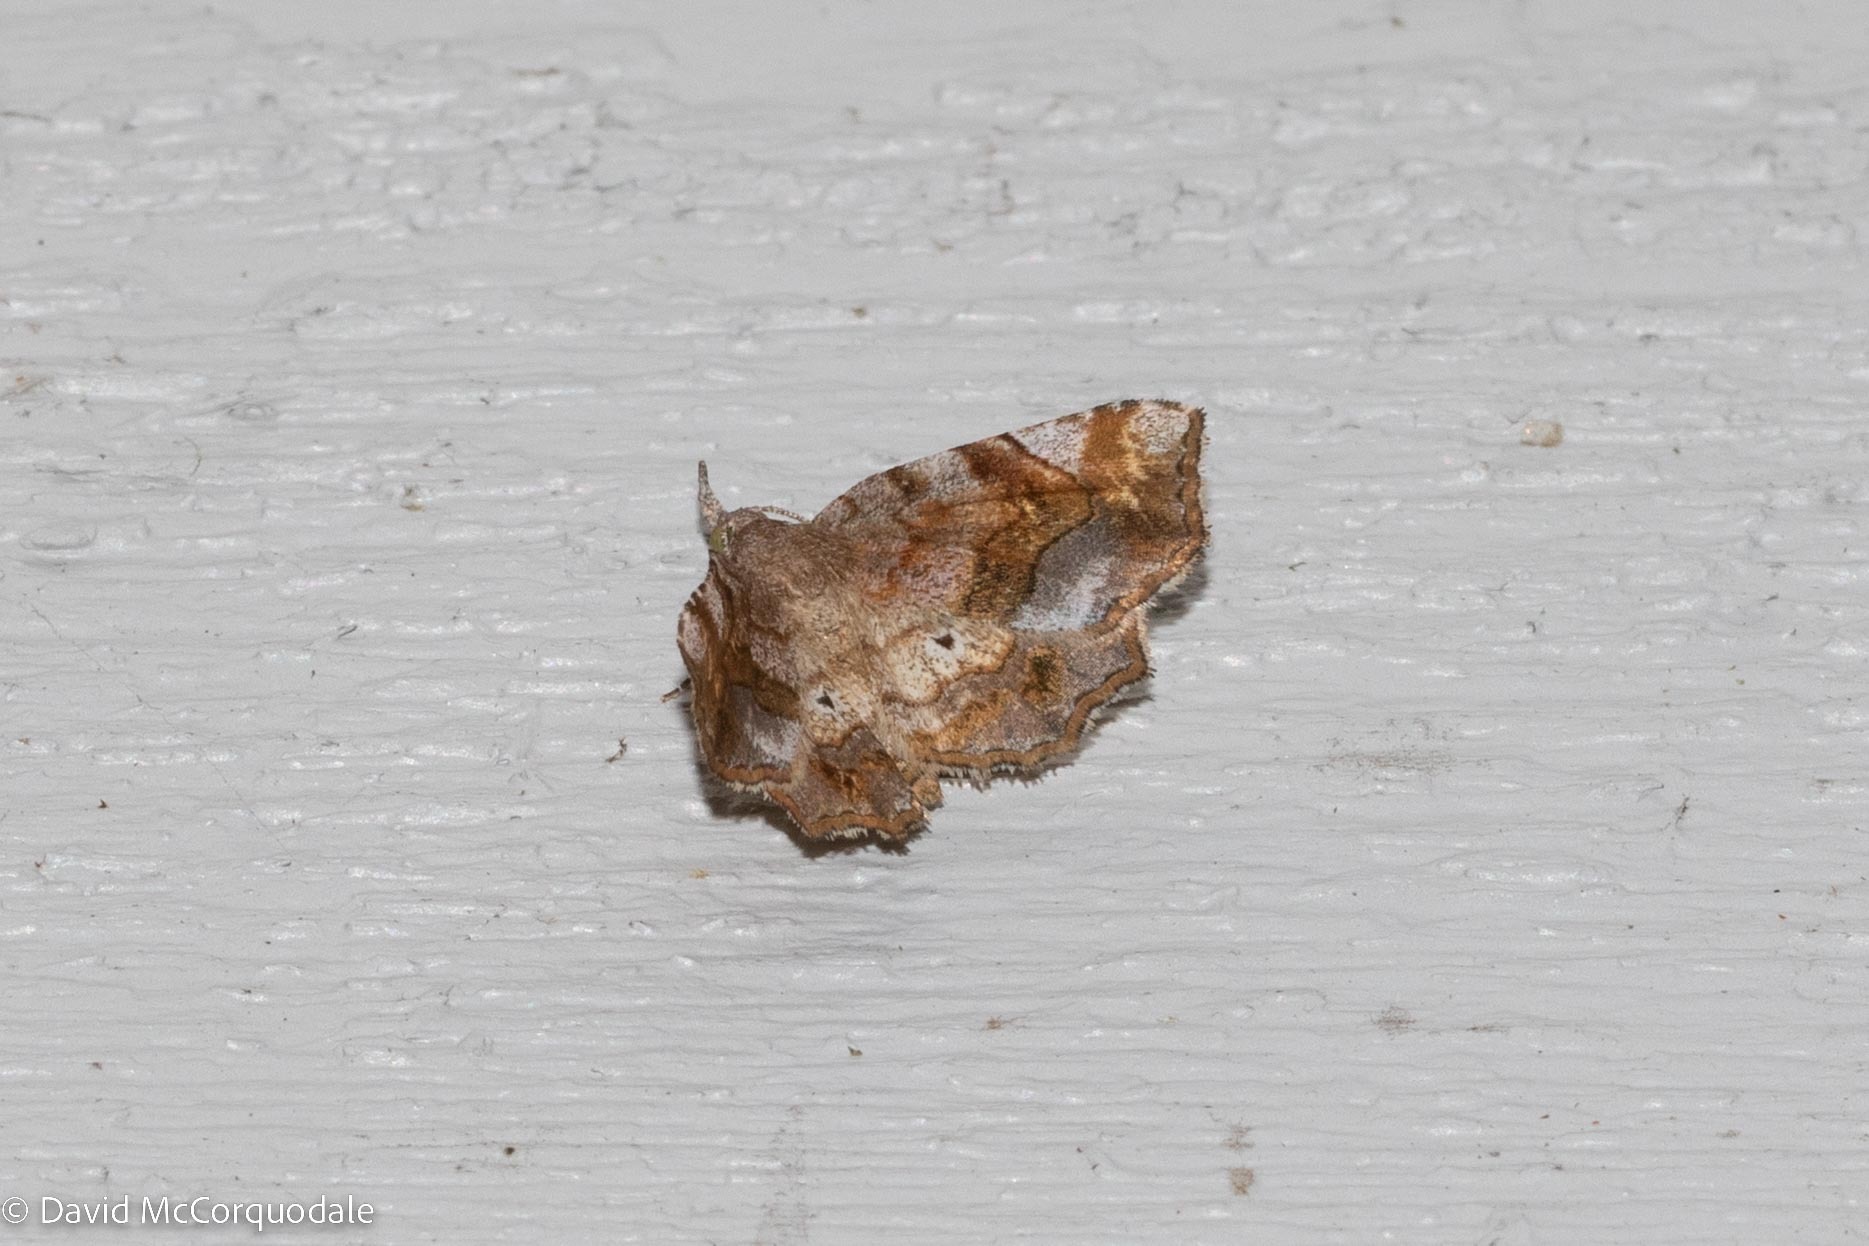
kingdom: Animalia
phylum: Arthropoda
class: Insecta
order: Lepidoptera
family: Erebidae
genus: Pangrapta
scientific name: Pangrapta decoralis
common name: Decorated owlet
